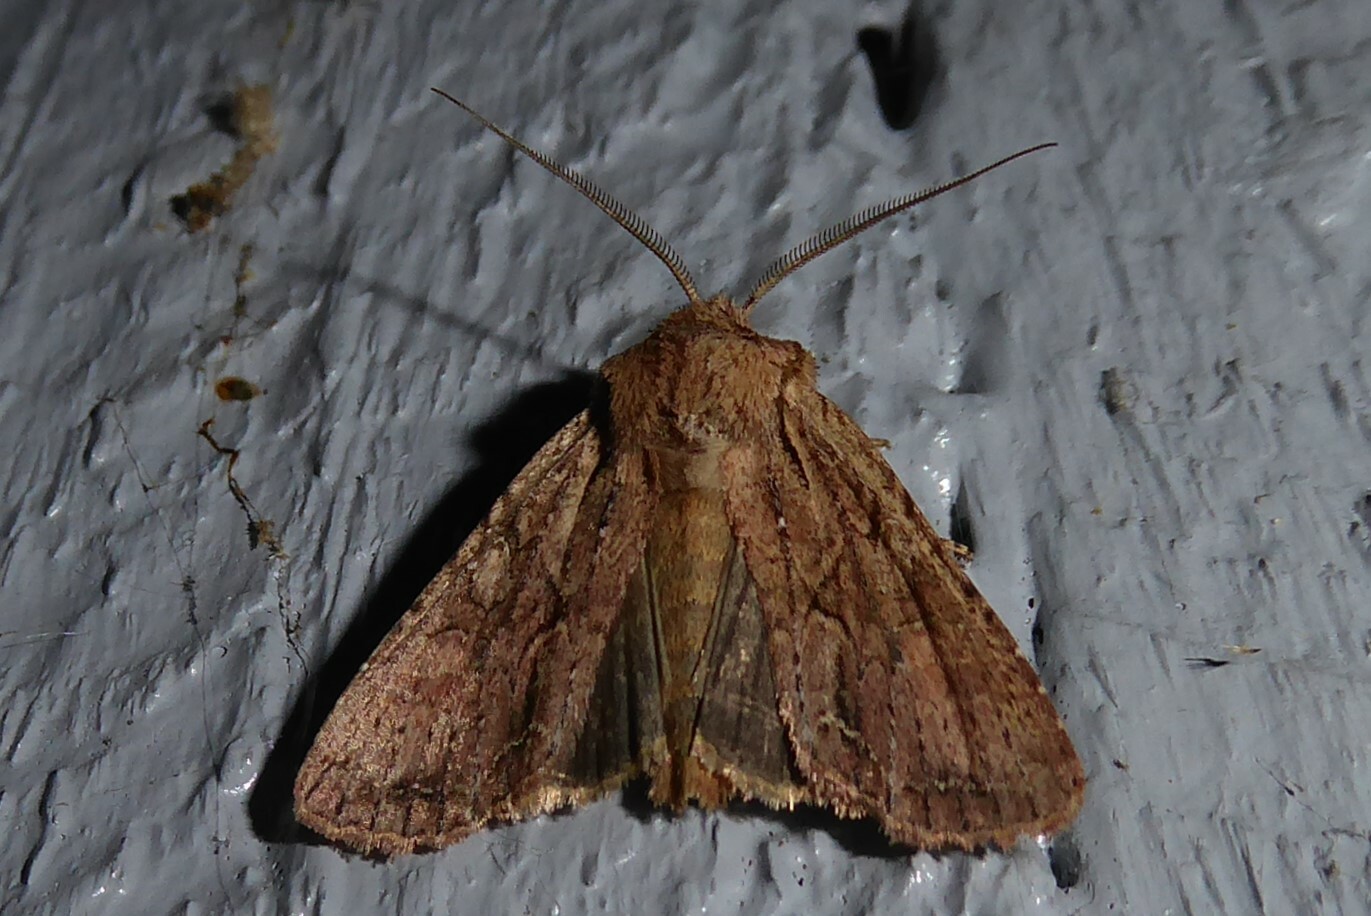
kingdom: Animalia
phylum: Arthropoda
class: Insecta
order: Lepidoptera
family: Noctuidae
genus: Ichneutica
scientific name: Ichneutica
